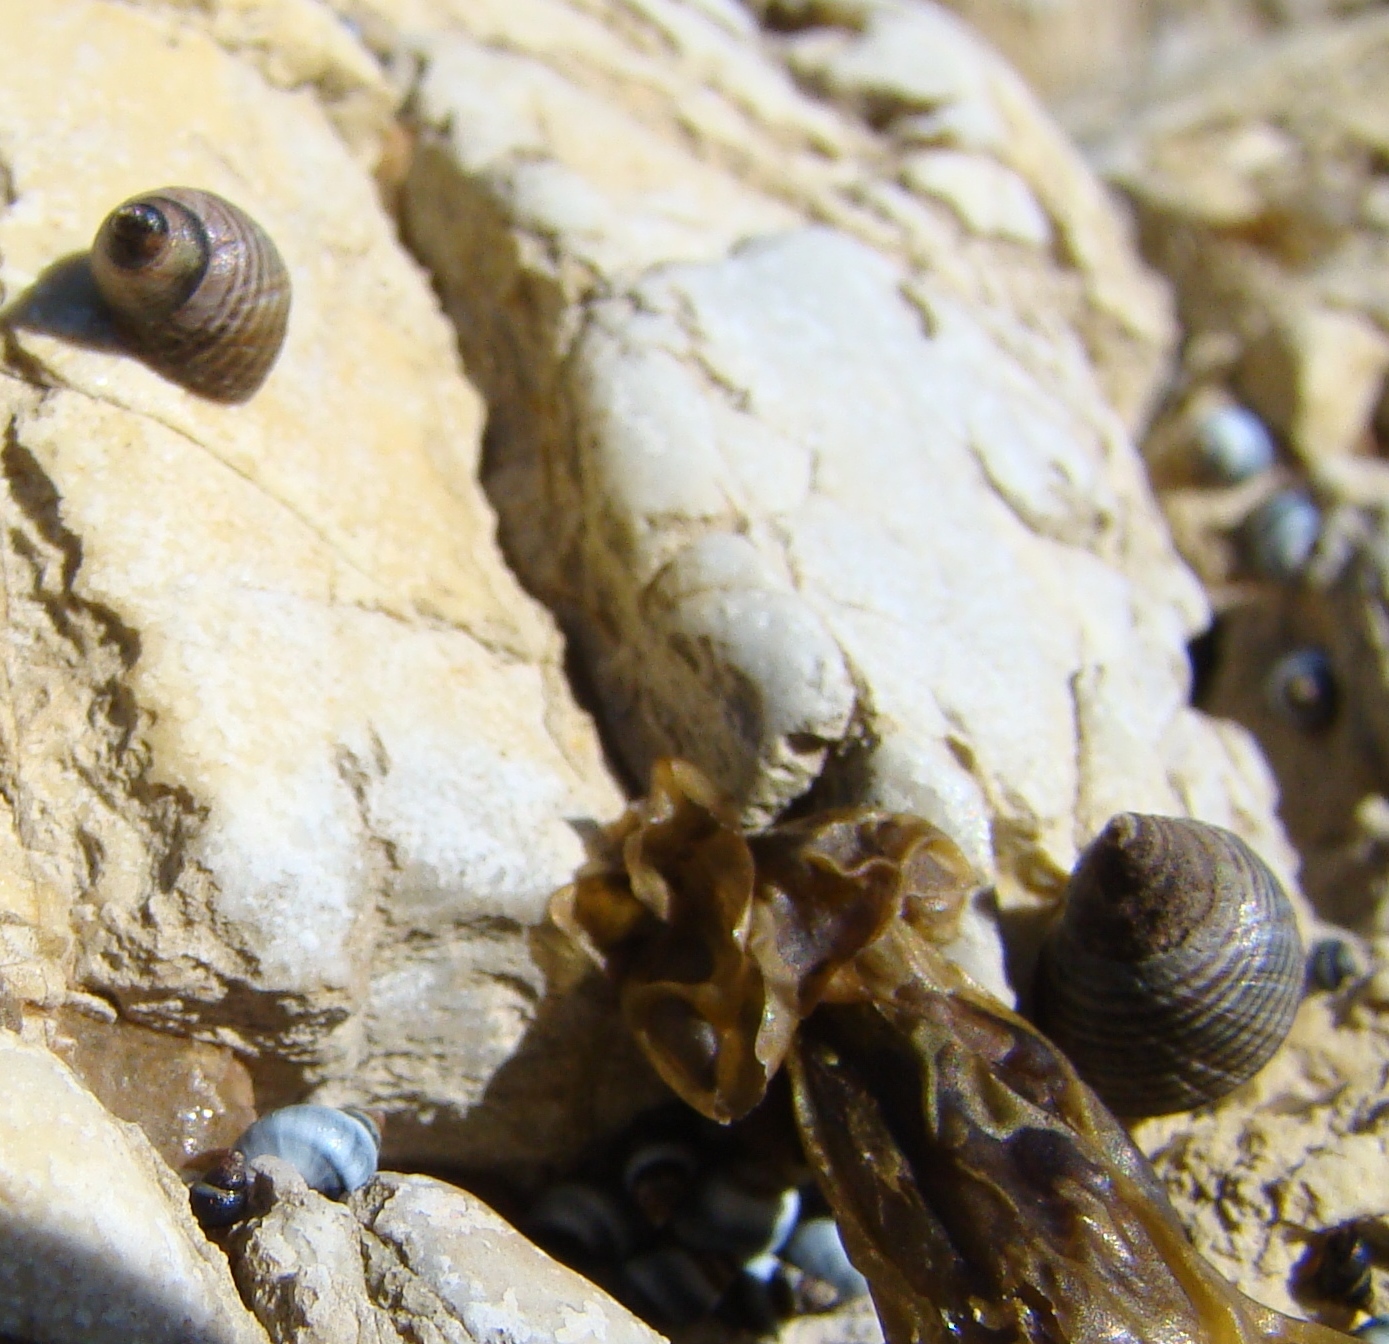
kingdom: Animalia
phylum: Mollusca
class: Gastropoda
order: Littorinimorpha
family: Littorinidae
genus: Austrolittorina
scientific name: Austrolittorina cincta
